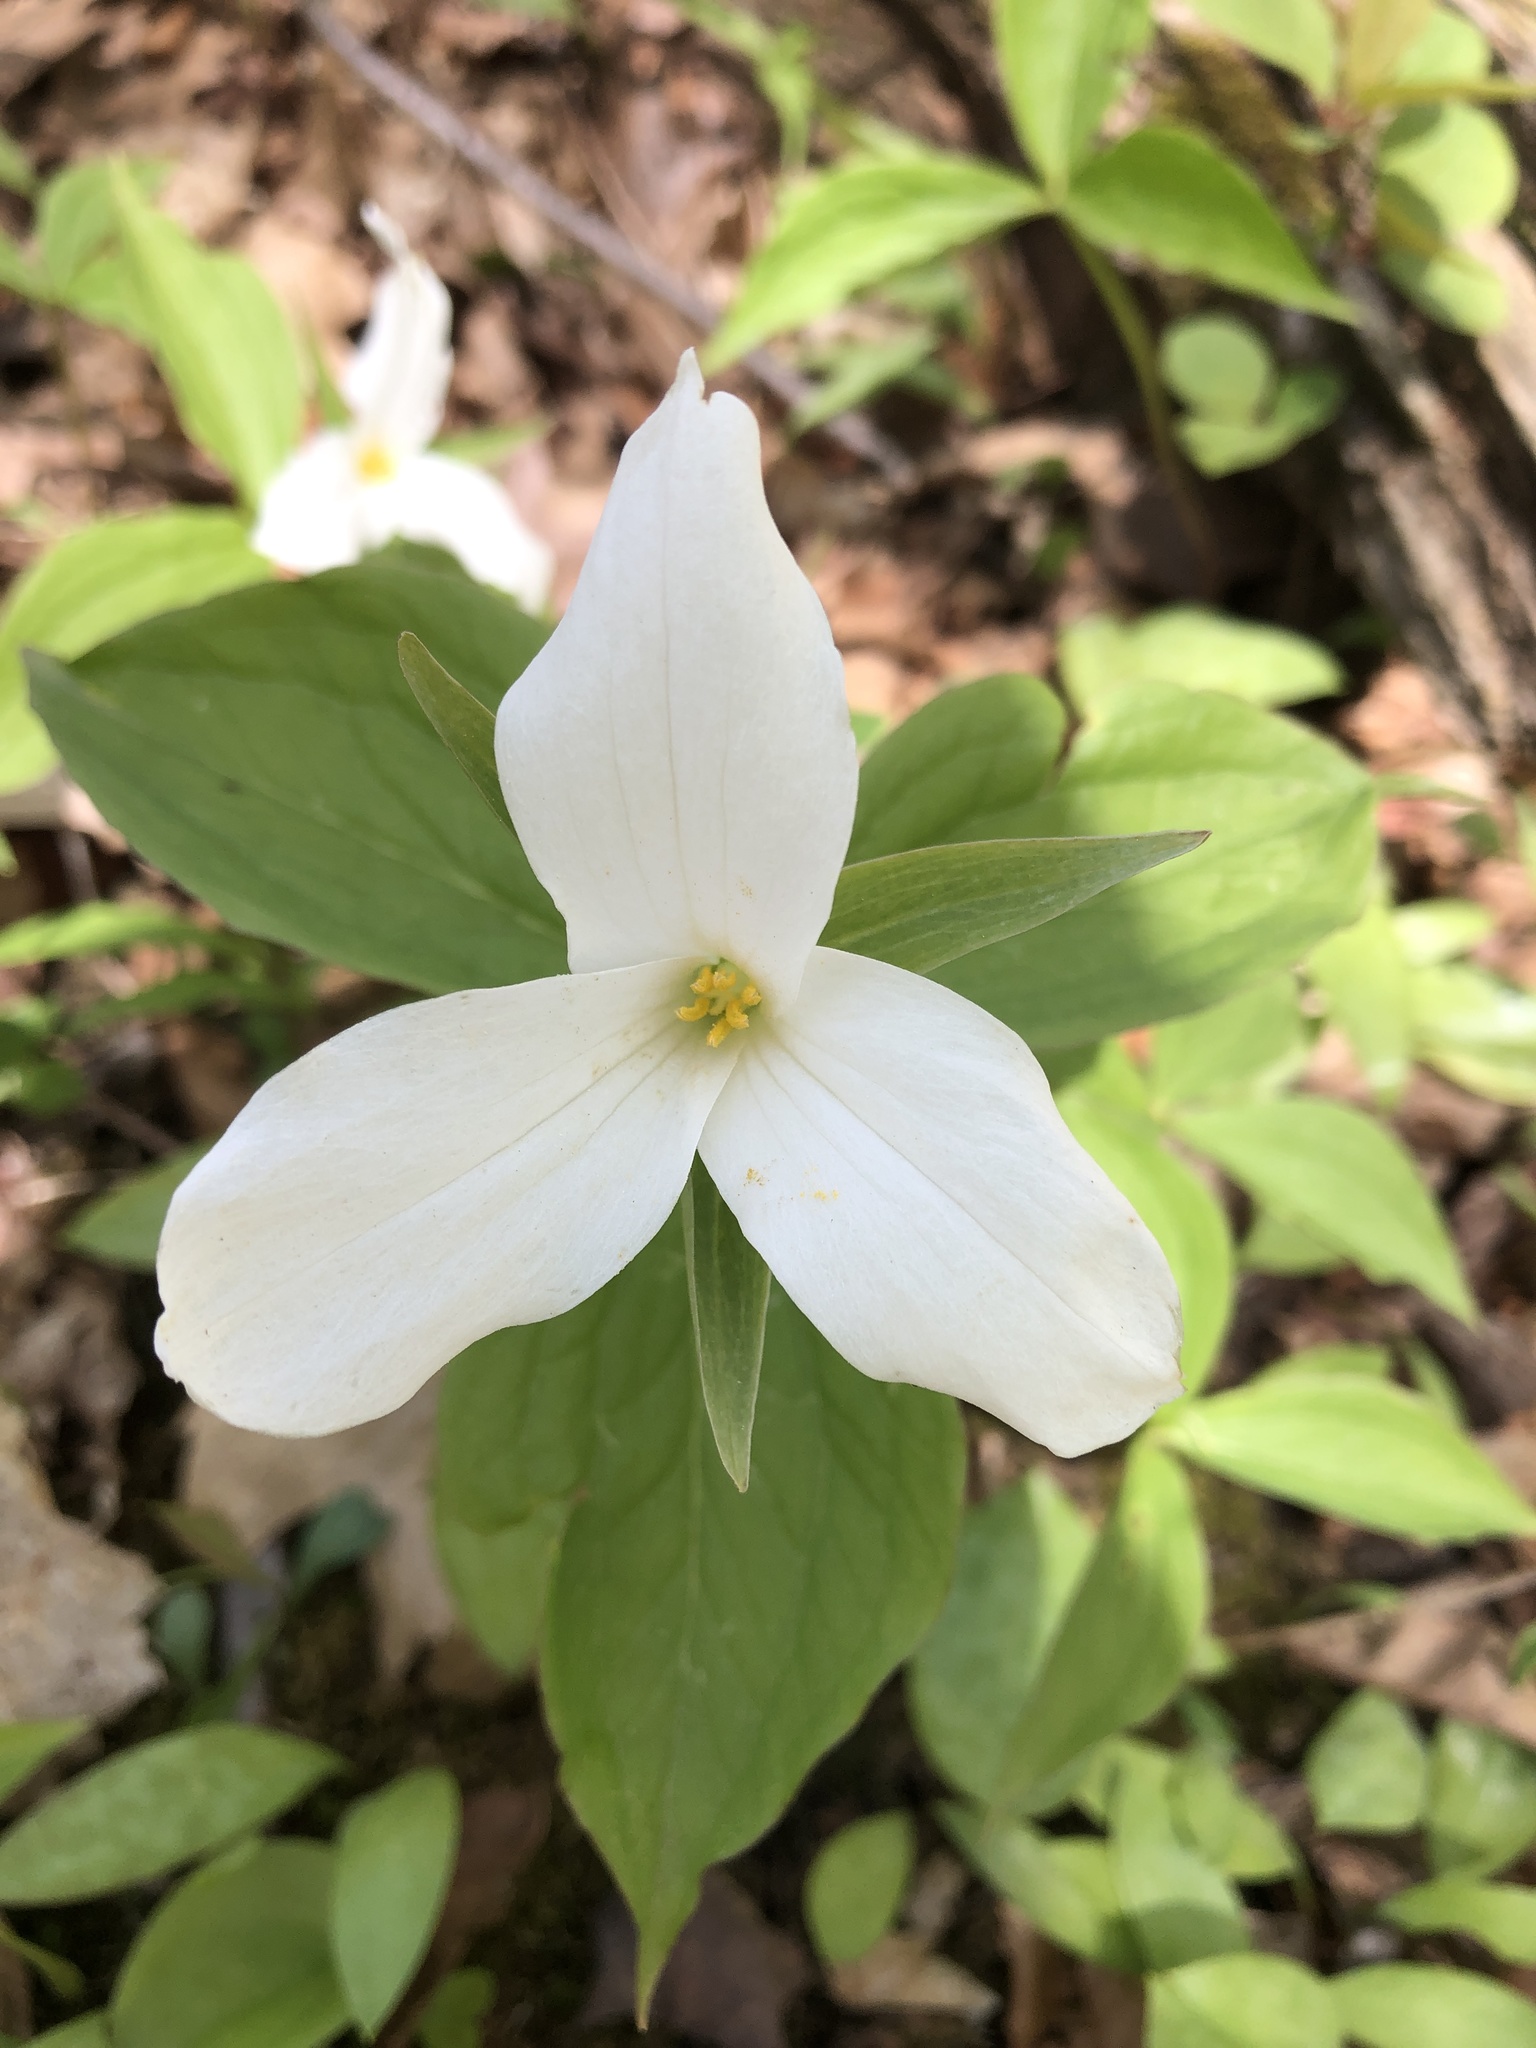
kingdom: Plantae
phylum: Tracheophyta
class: Liliopsida
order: Liliales
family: Melanthiaceae
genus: Trillium
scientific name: Trillium grandiflorum
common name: Great white trillium
